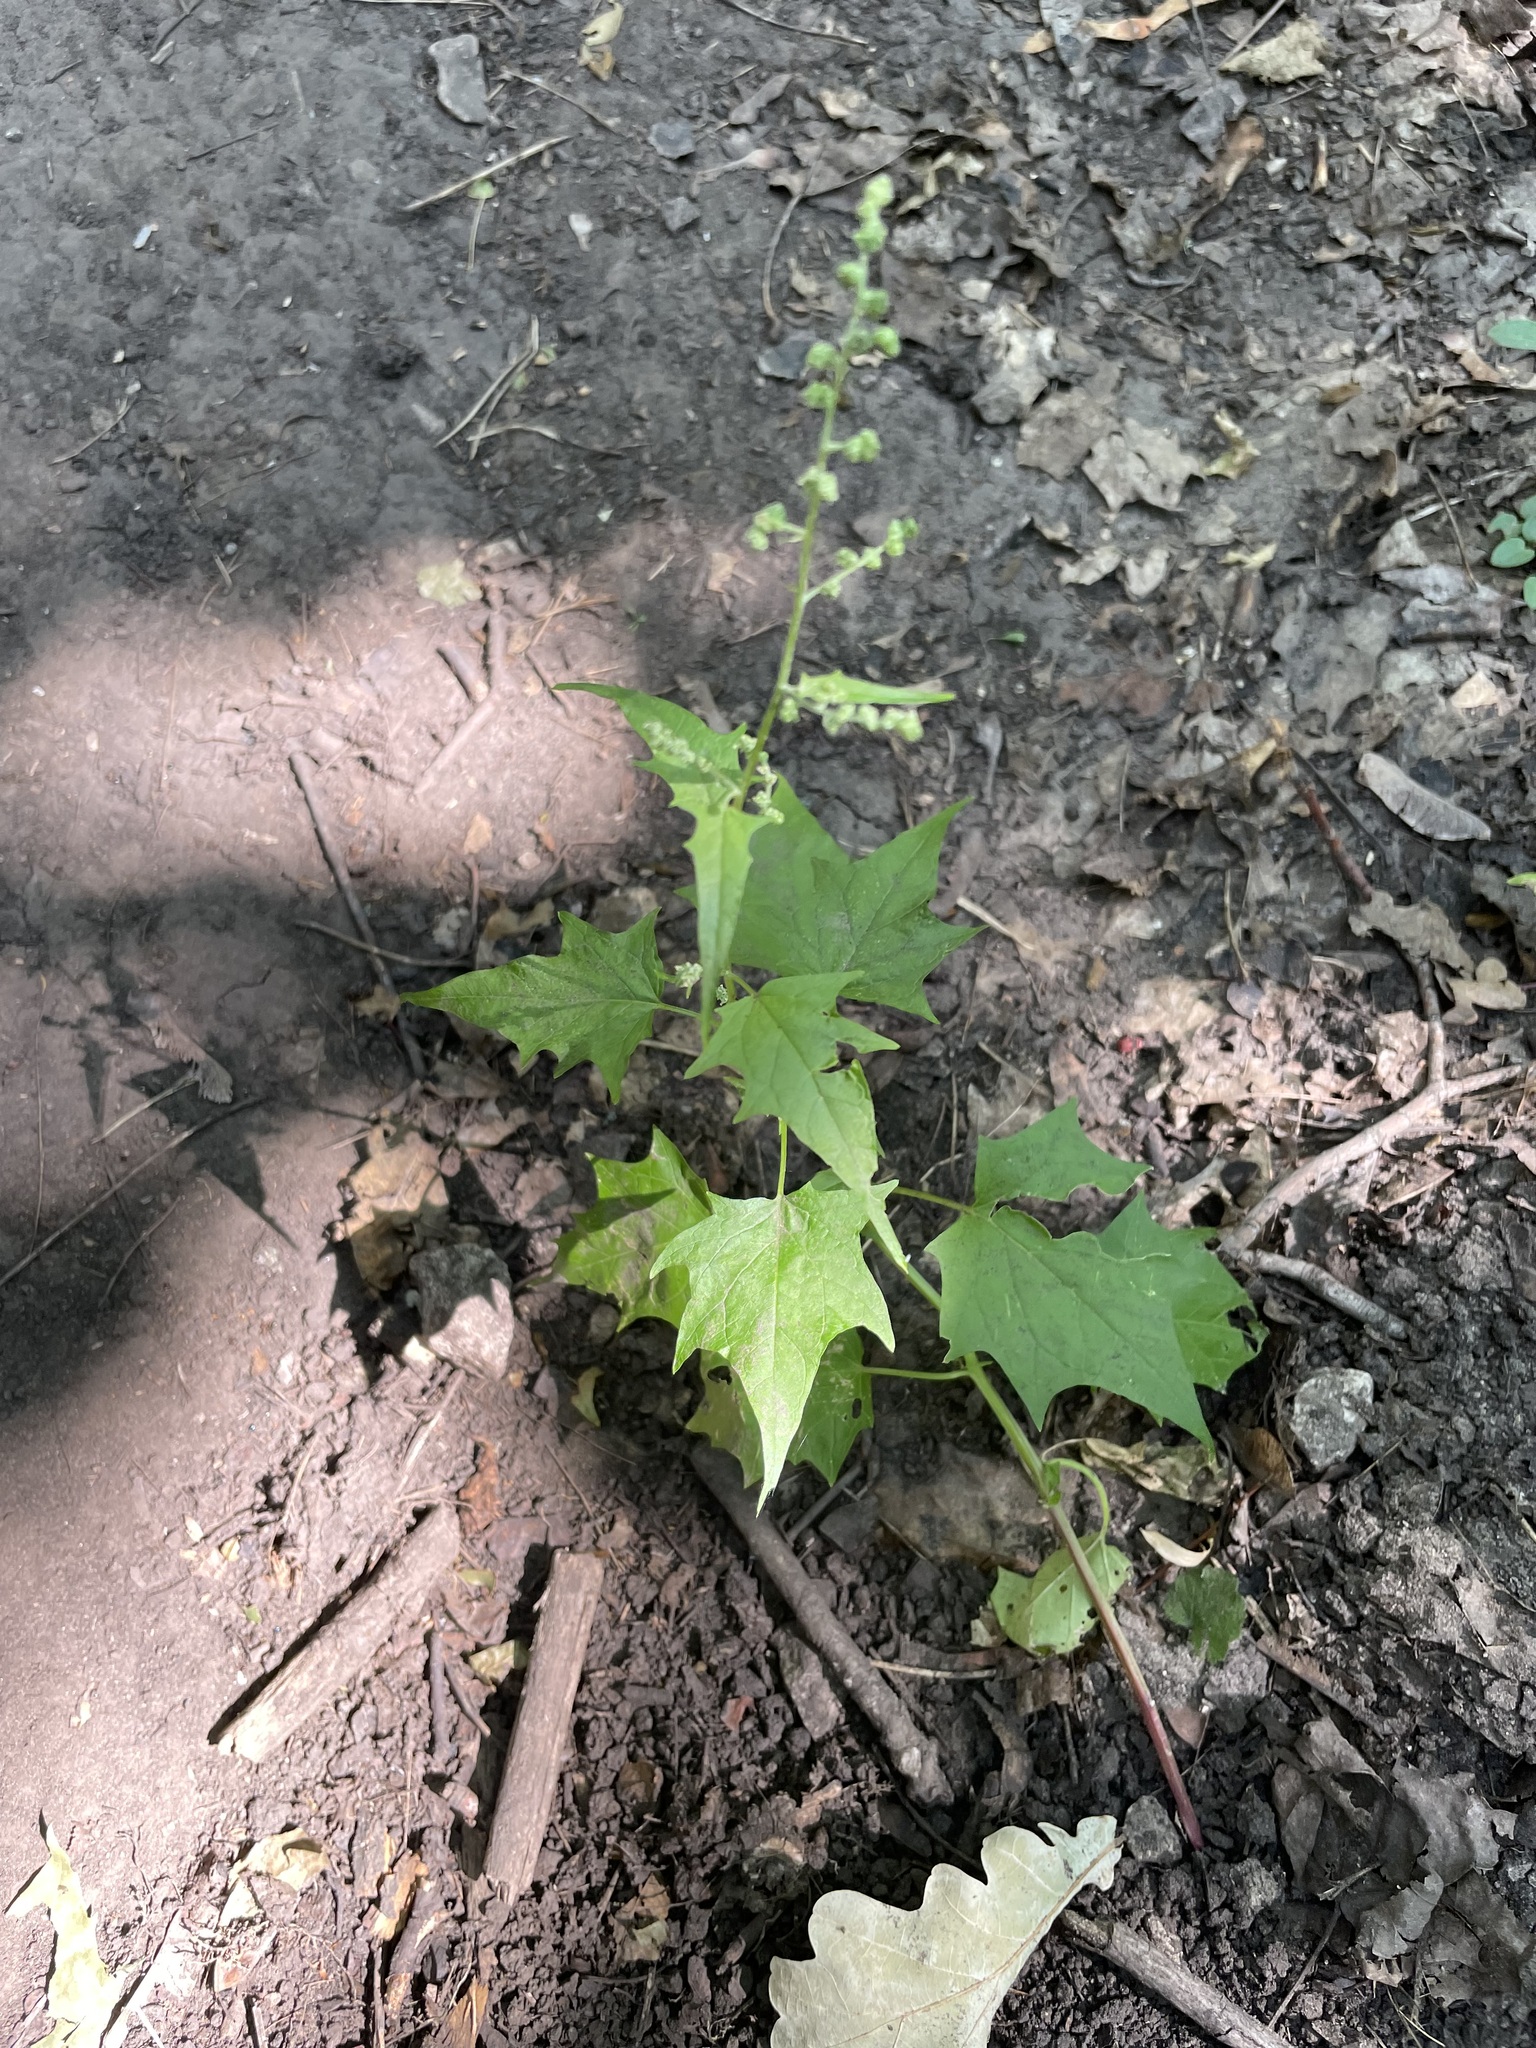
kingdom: Plantae
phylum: Tracheophyta
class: Magnoliopsida
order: Caryophyllales
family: Amaranthaceae
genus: Chenopodiastrum
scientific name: Chenopodiastrum hybridum
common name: Mapleleaf goosefoot
